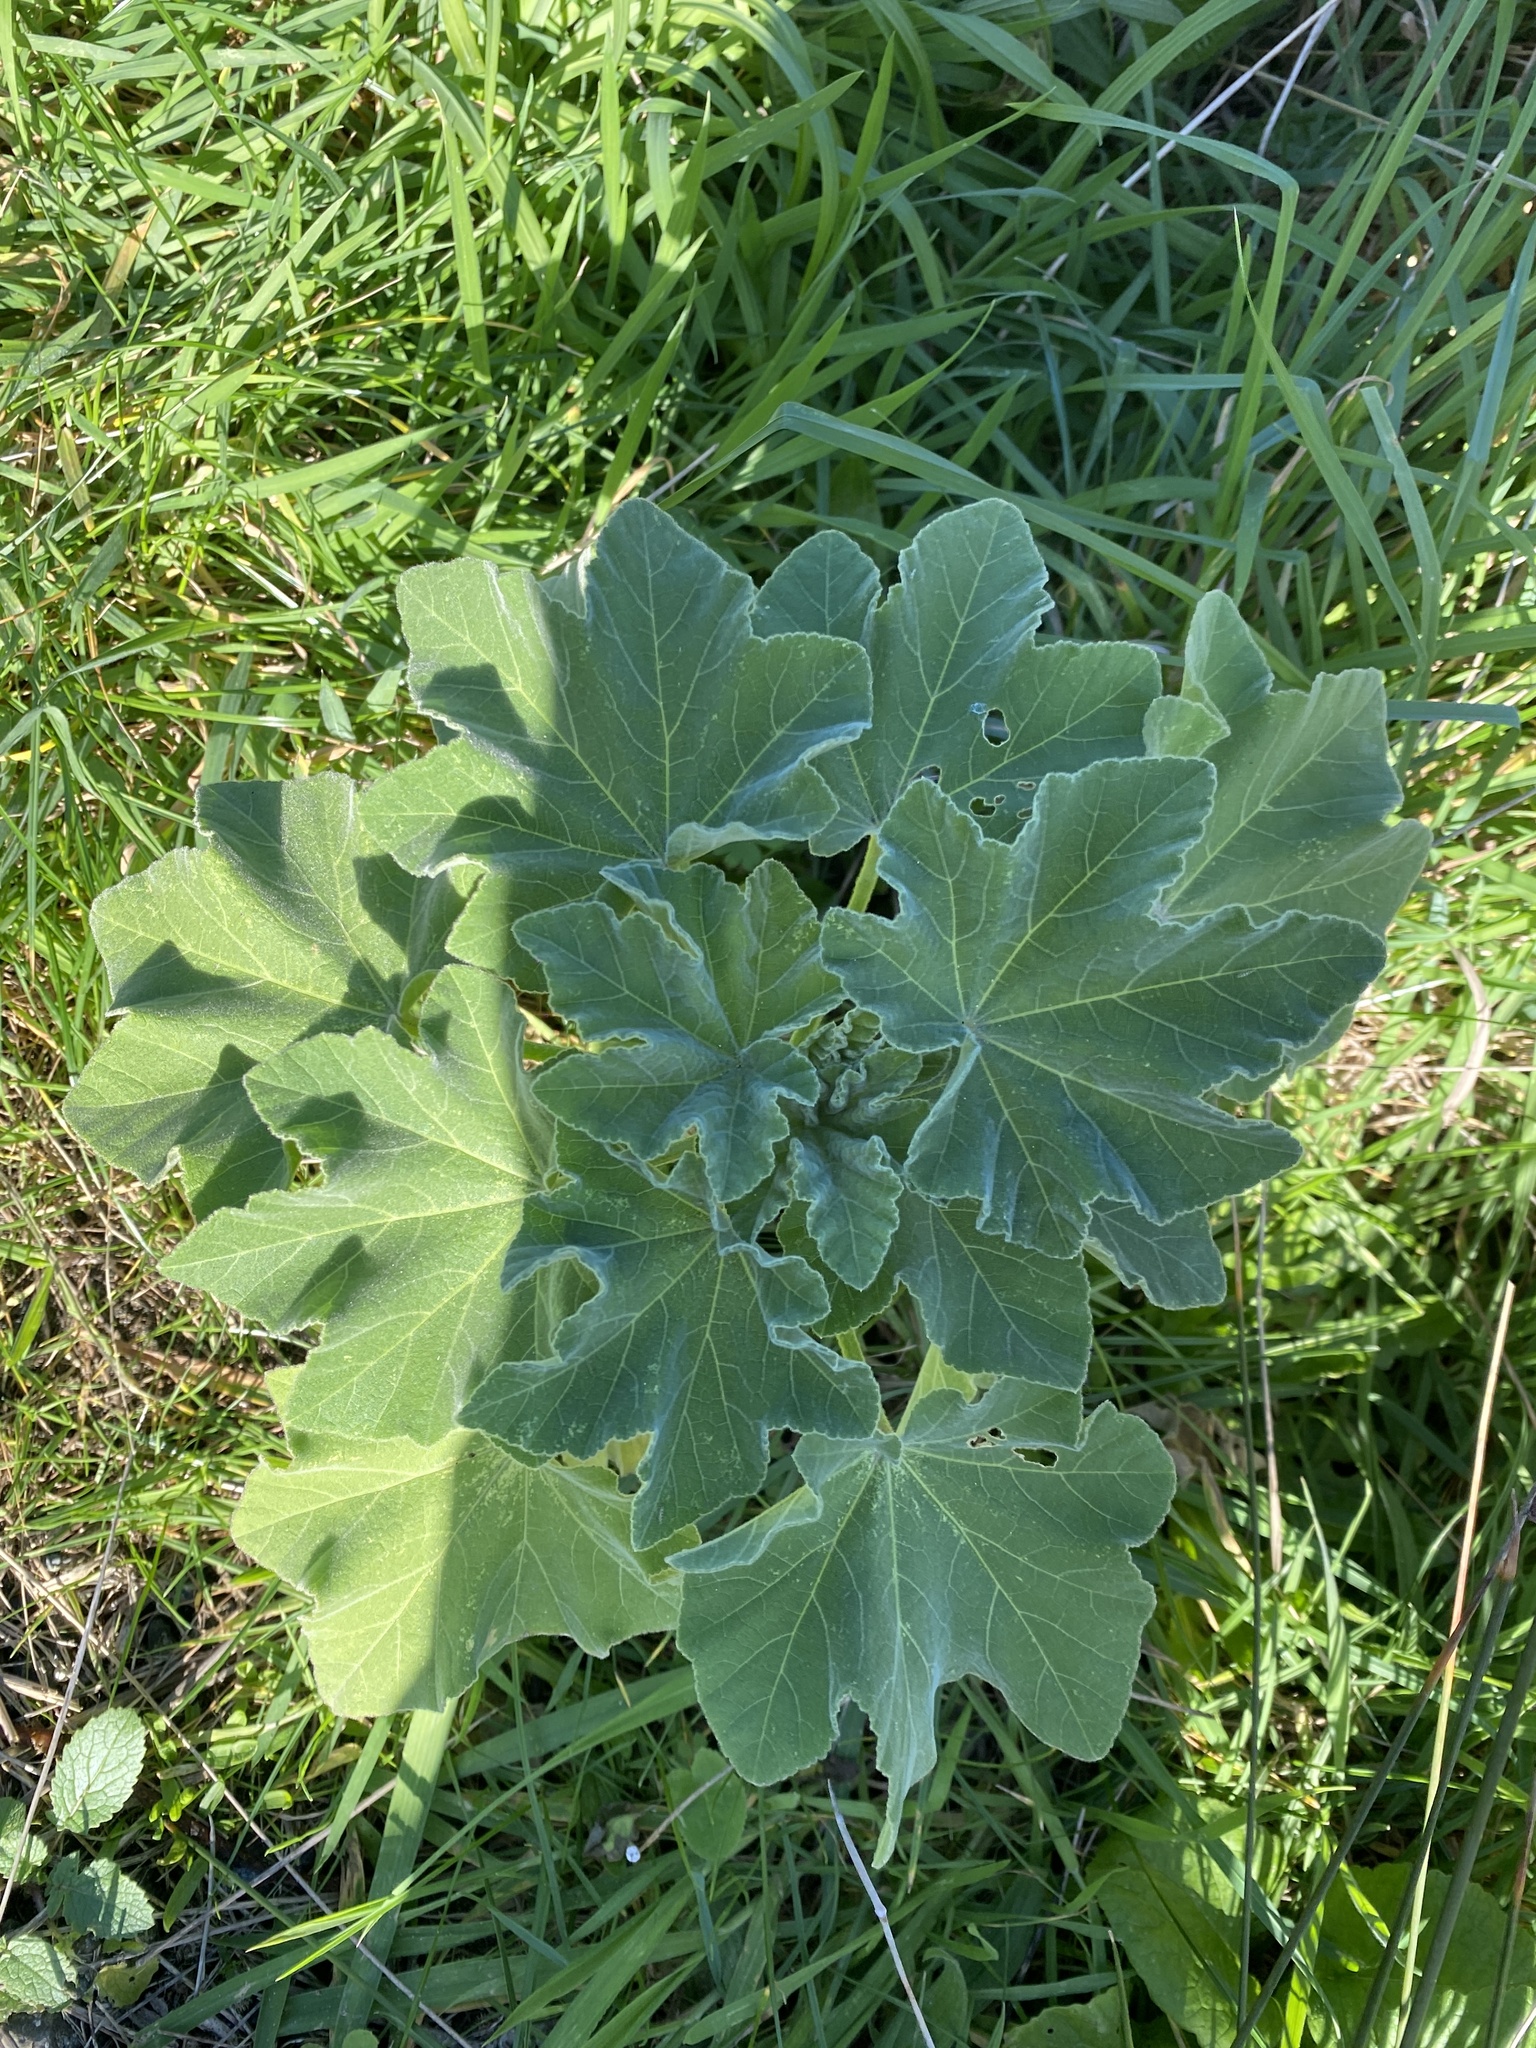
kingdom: Plantae
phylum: Tracheophyta
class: Magnoliopsida
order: Malvales
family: Malvaceae
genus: Malva
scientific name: Malva arborea
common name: Tree mallow
